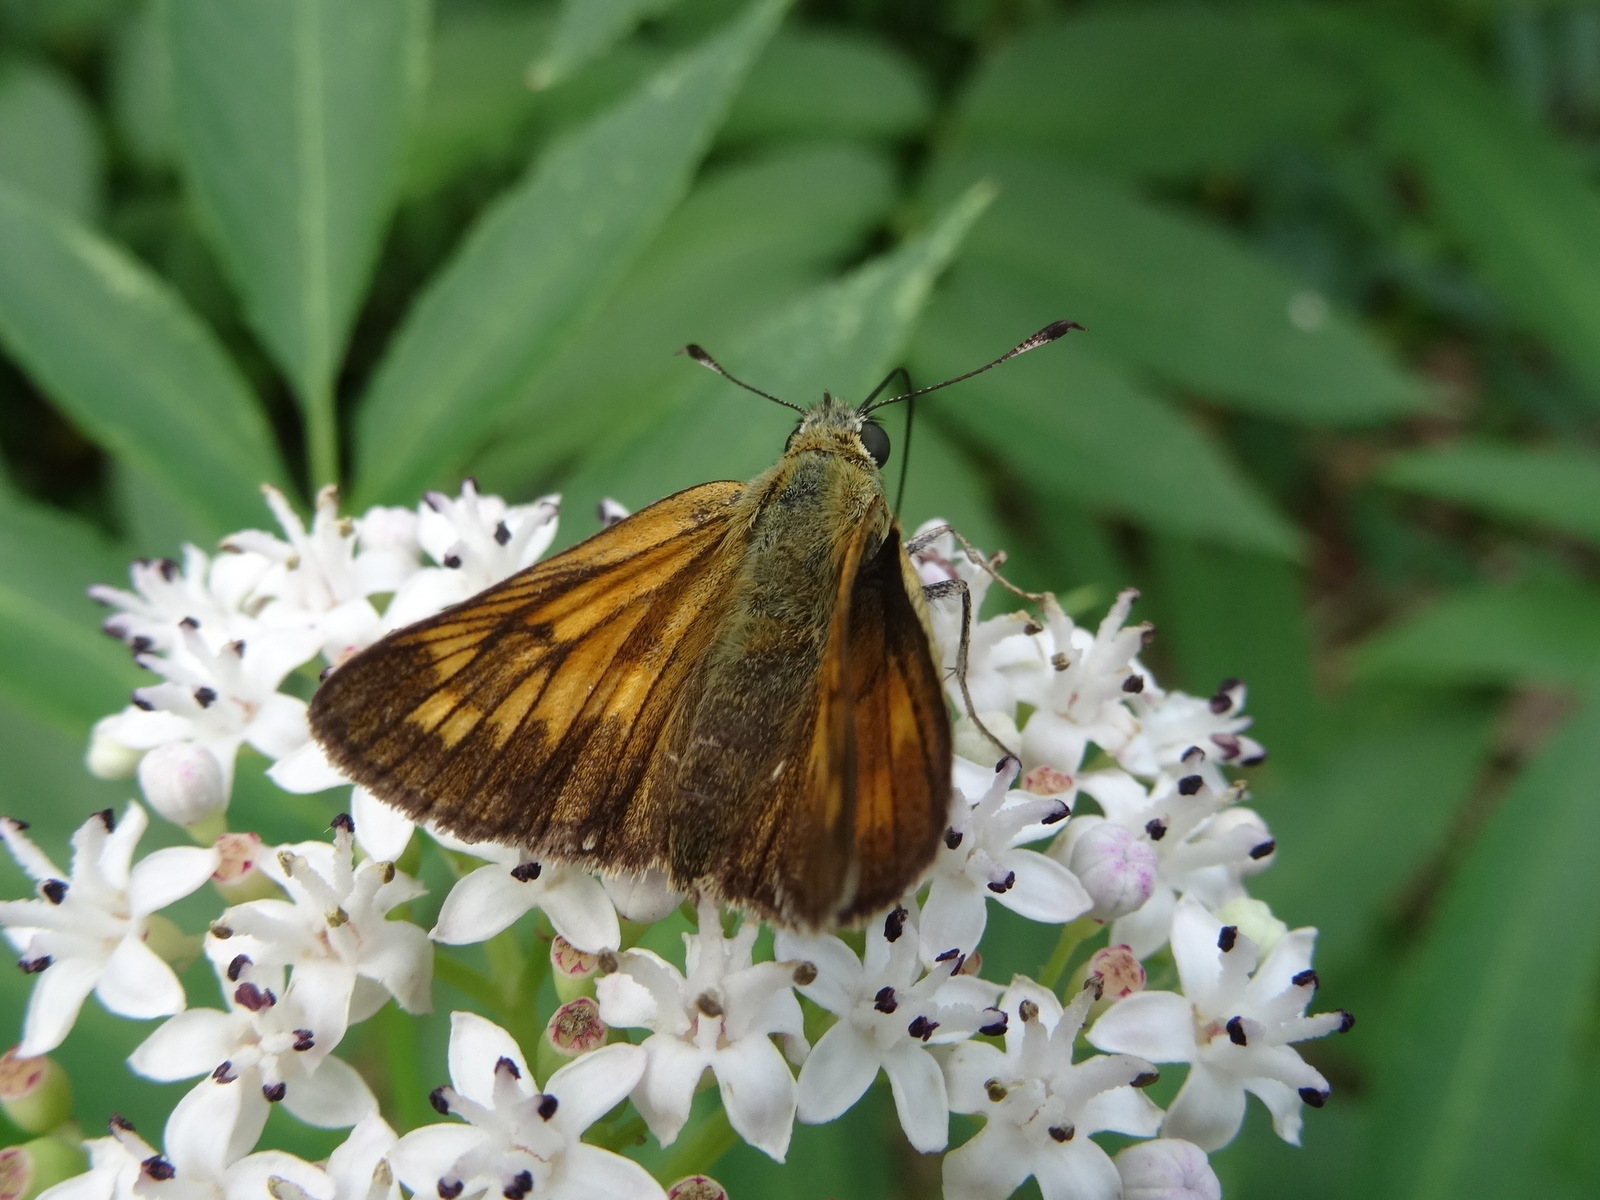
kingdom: Animalia
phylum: Arthropoda
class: Insecta
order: Lepidoptera
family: Hesperiidae
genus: Ochlodes
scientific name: Ochlodes venata
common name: Large skipper
